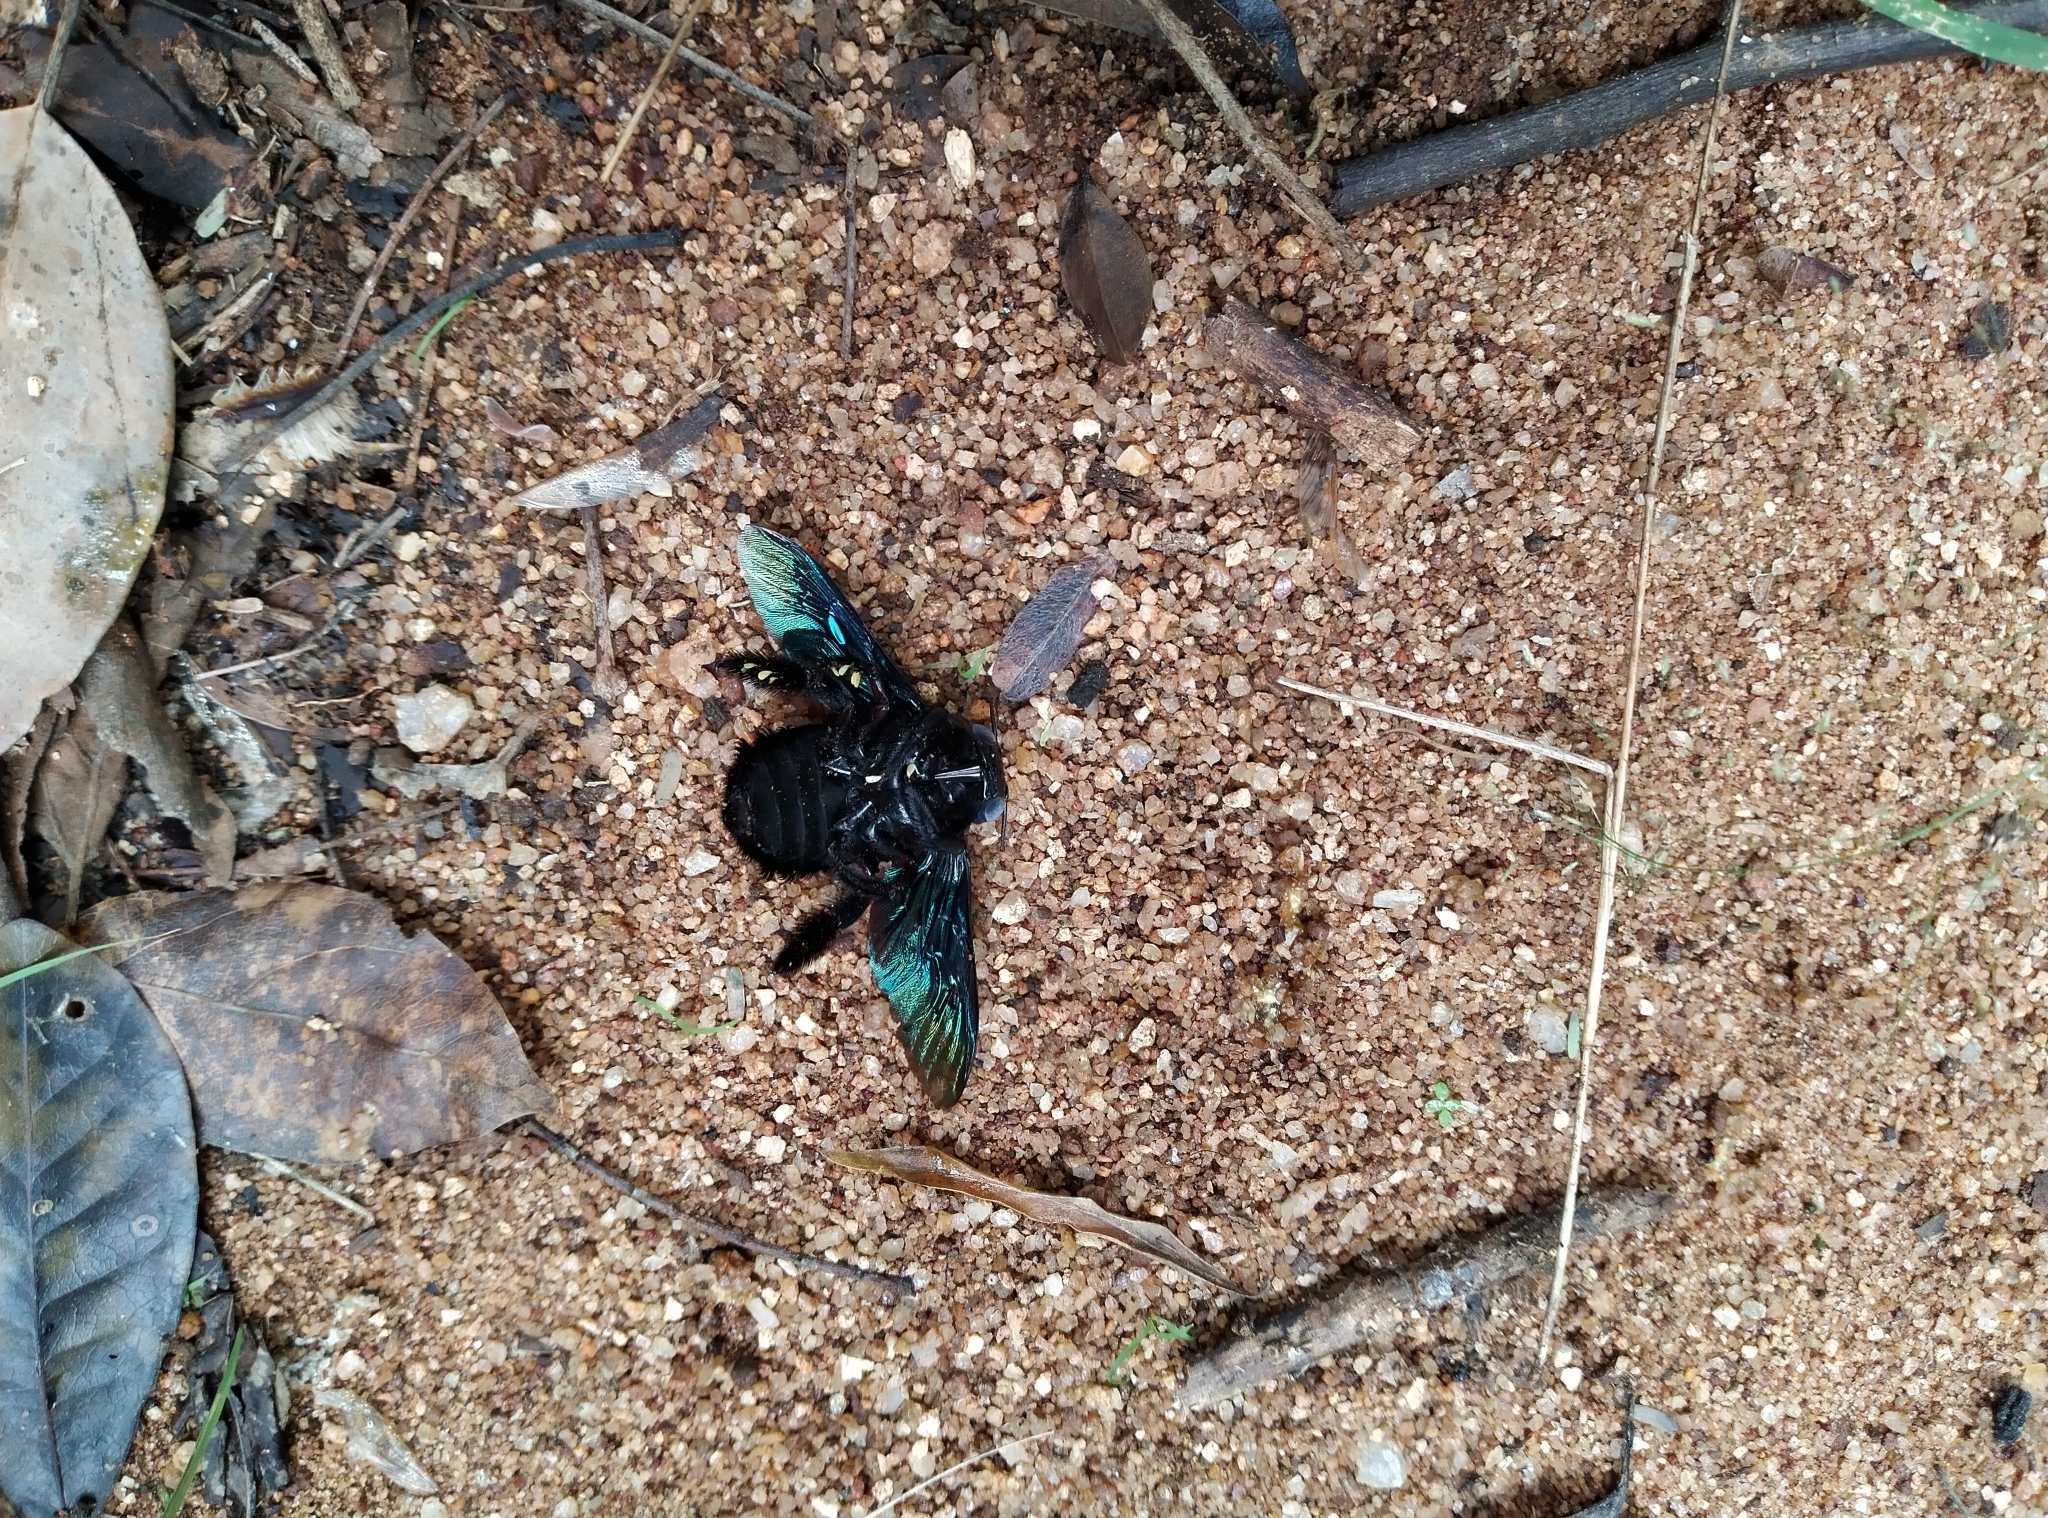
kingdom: Animalia
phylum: Arthropoda
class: Insecta
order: Hymenoptera
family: Apidae
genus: Xylocopa
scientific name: Xylocopa tenuiscapa
